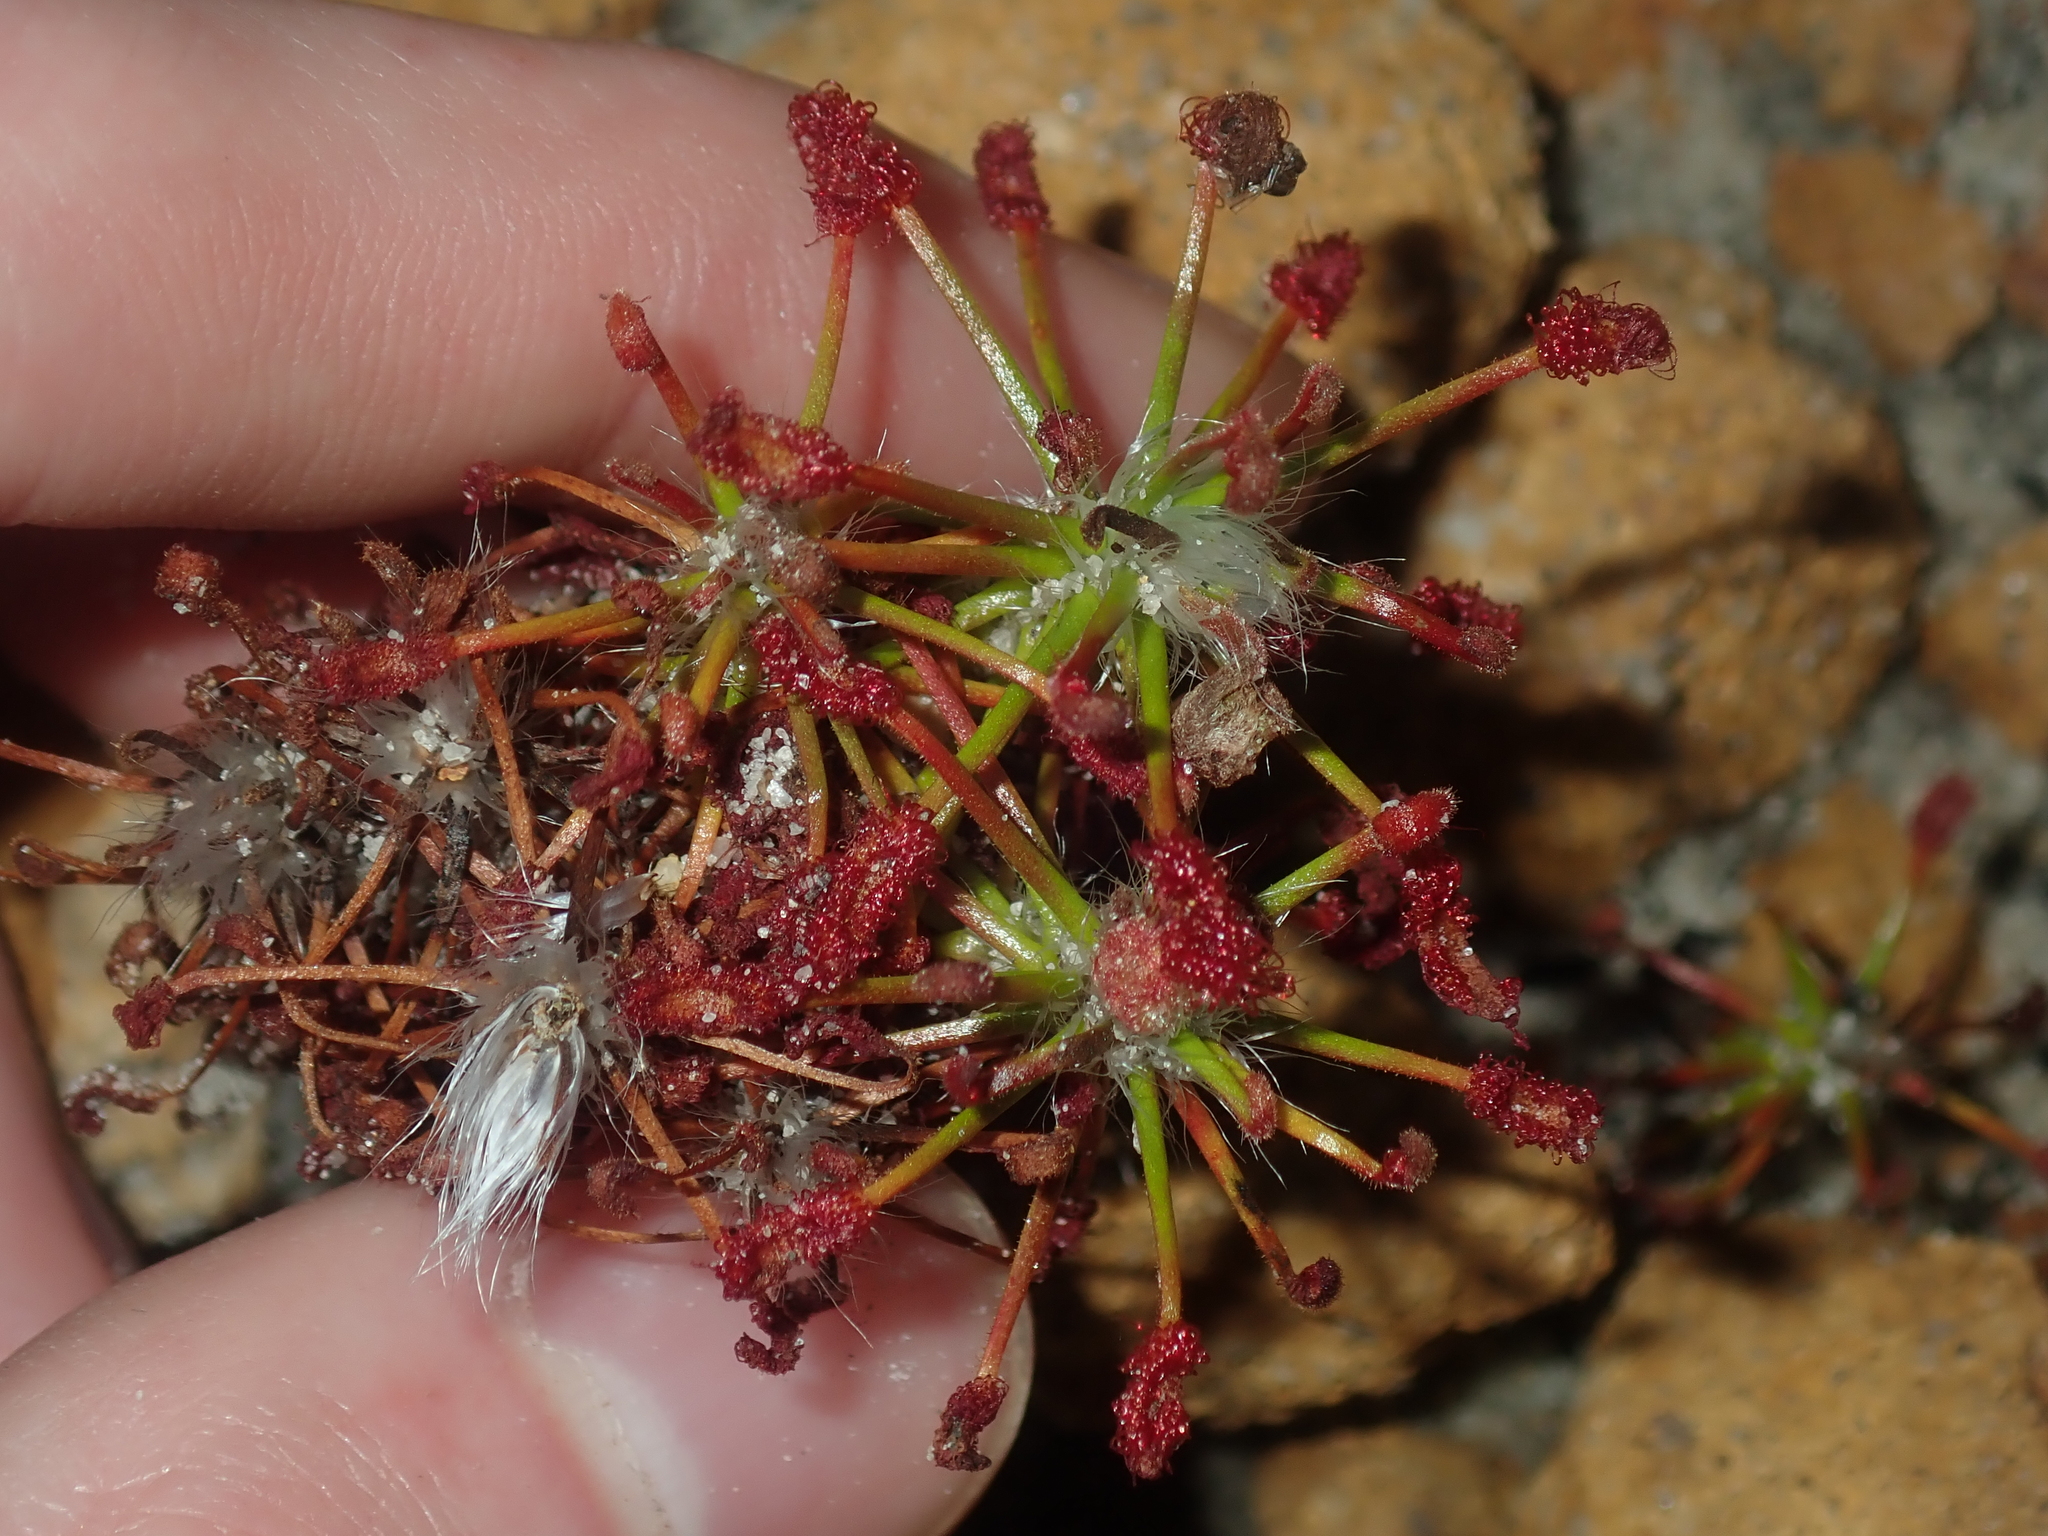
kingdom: Plantae
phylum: Tracheophyta
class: Magnoliopsida
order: Caryophyllales
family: Droseraceae
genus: Drosera
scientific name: Drosera barbigera
